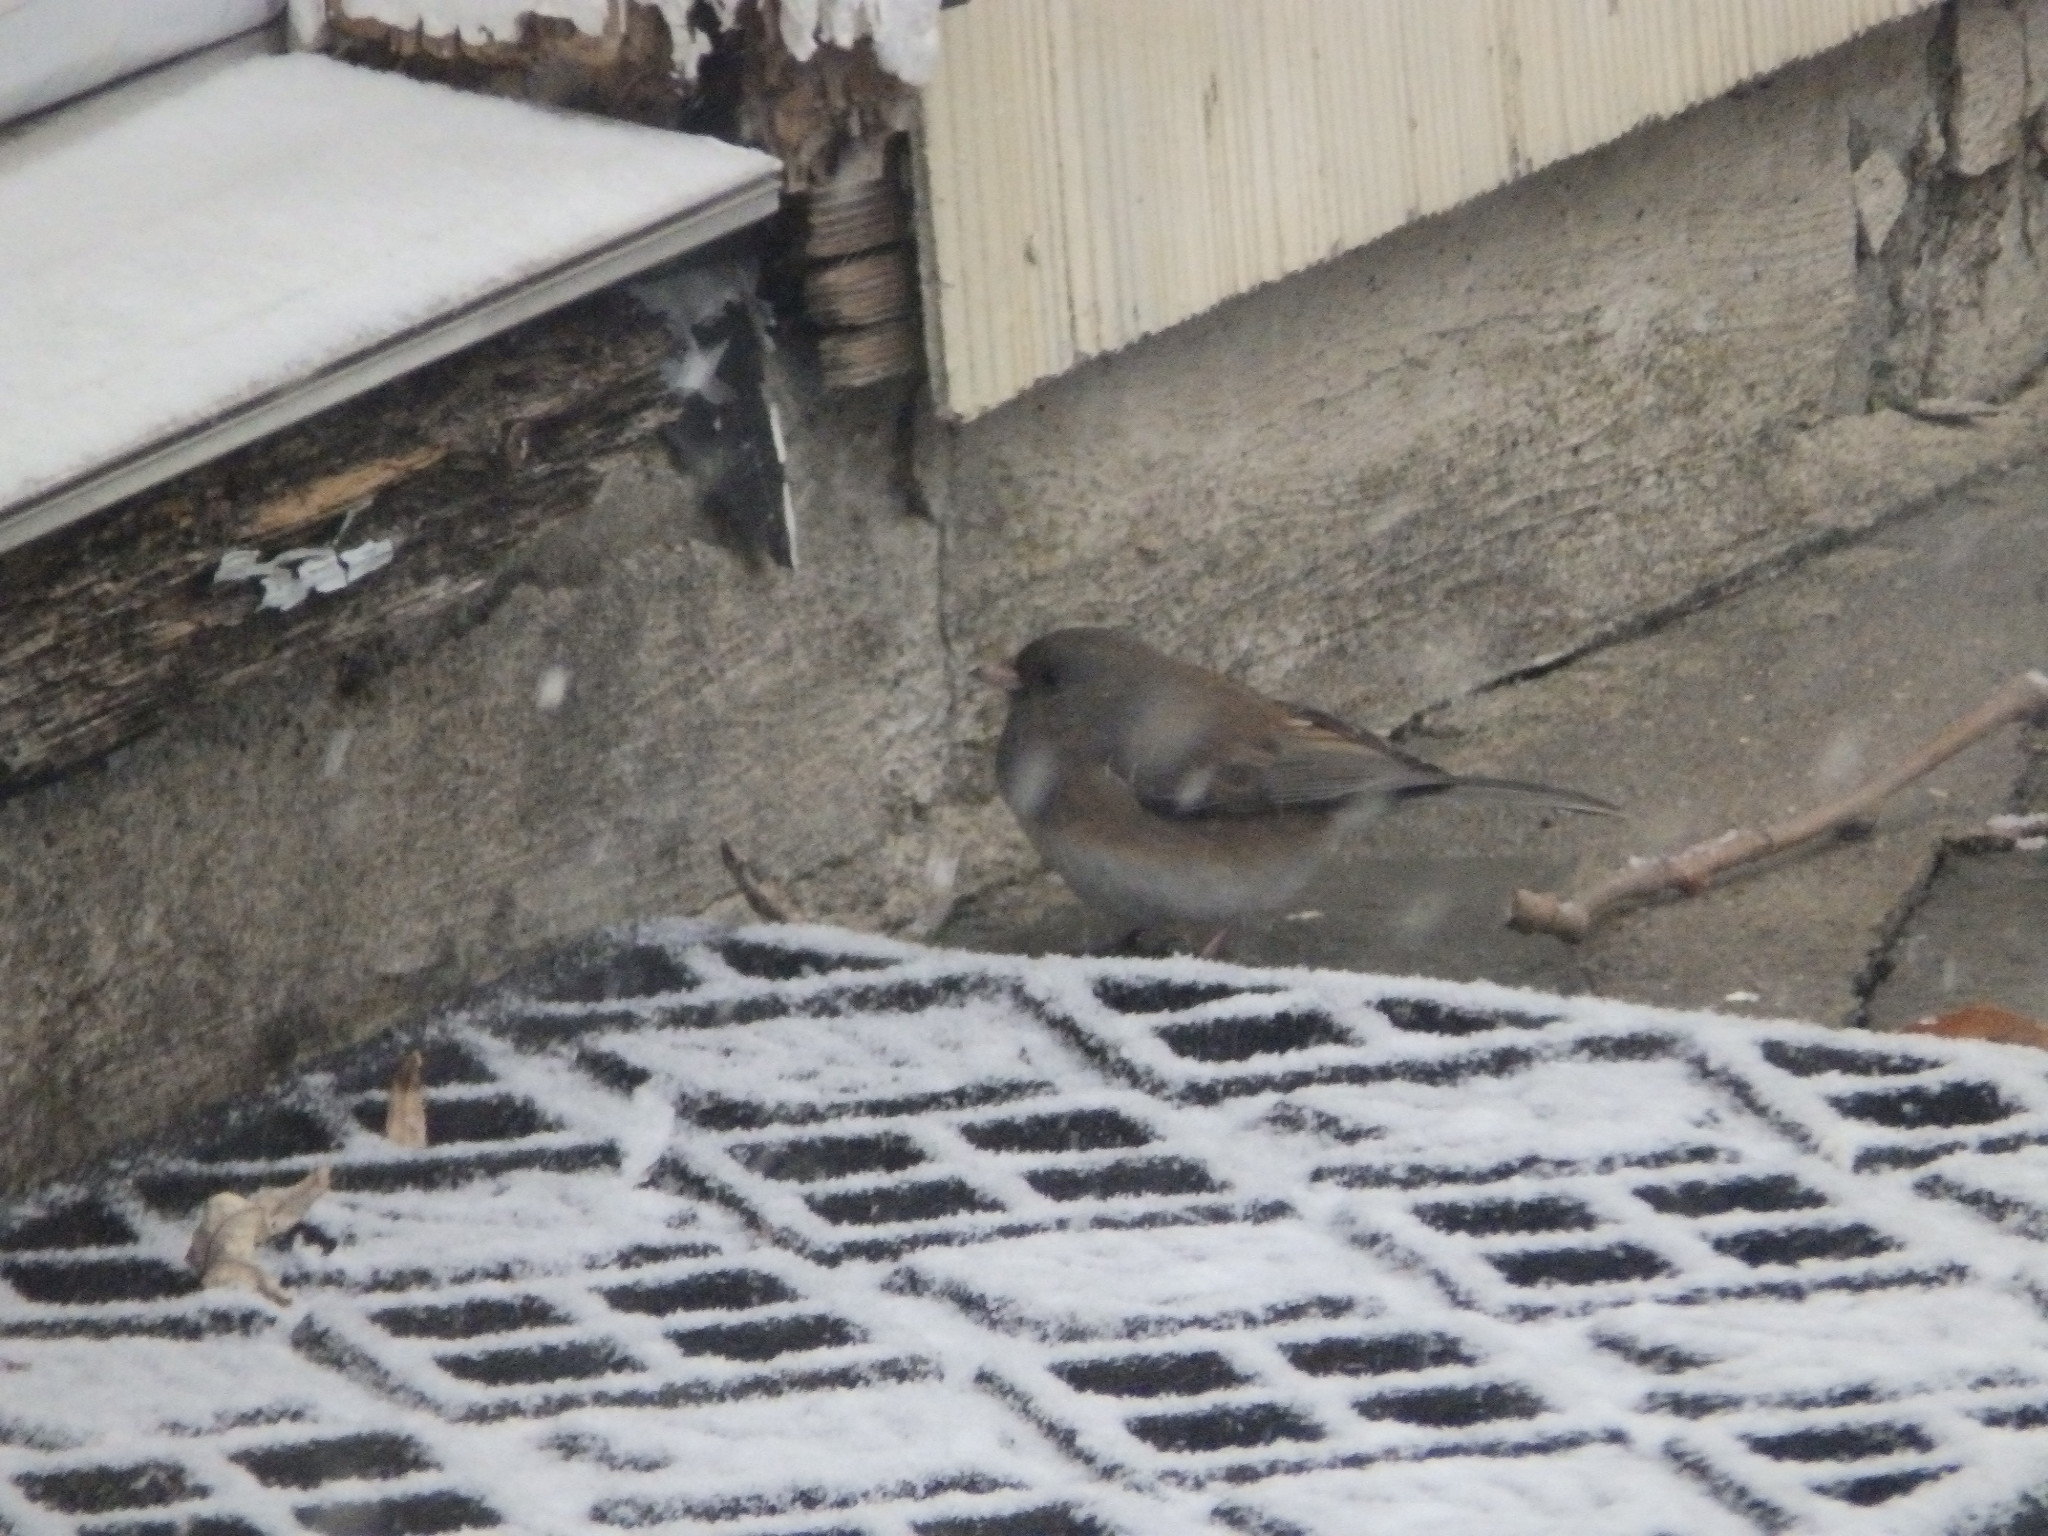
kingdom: Animalia
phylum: Chordata
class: Aves
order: Passeriformes
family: Passerellidae
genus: Junco
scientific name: Junco hyemalis
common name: Dark-eyed junco
